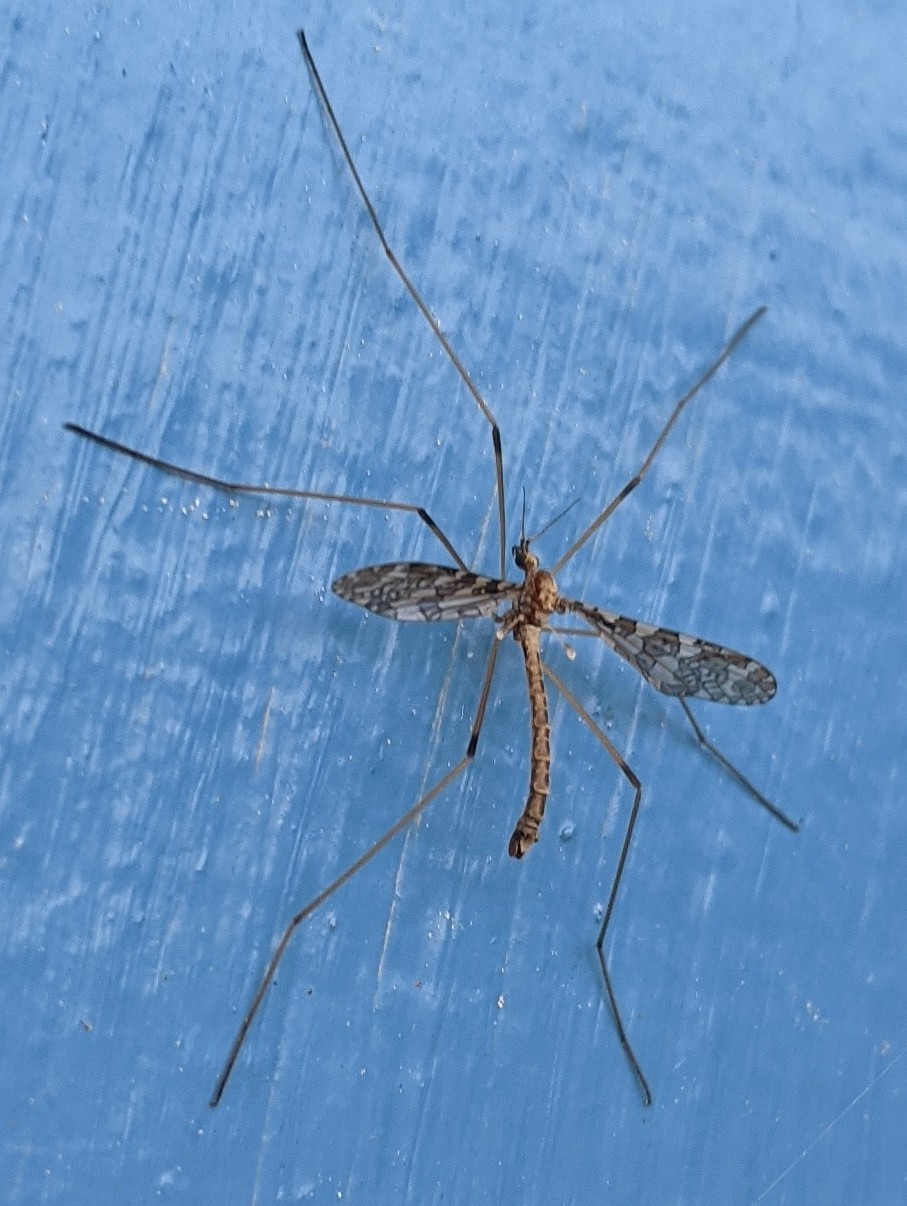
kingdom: Animalia
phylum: Arthropoda
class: Insecta
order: Diptera
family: Limoniidae
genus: Epiphragma
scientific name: Epiphragma fasciapenne
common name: Band-winged crane fly
